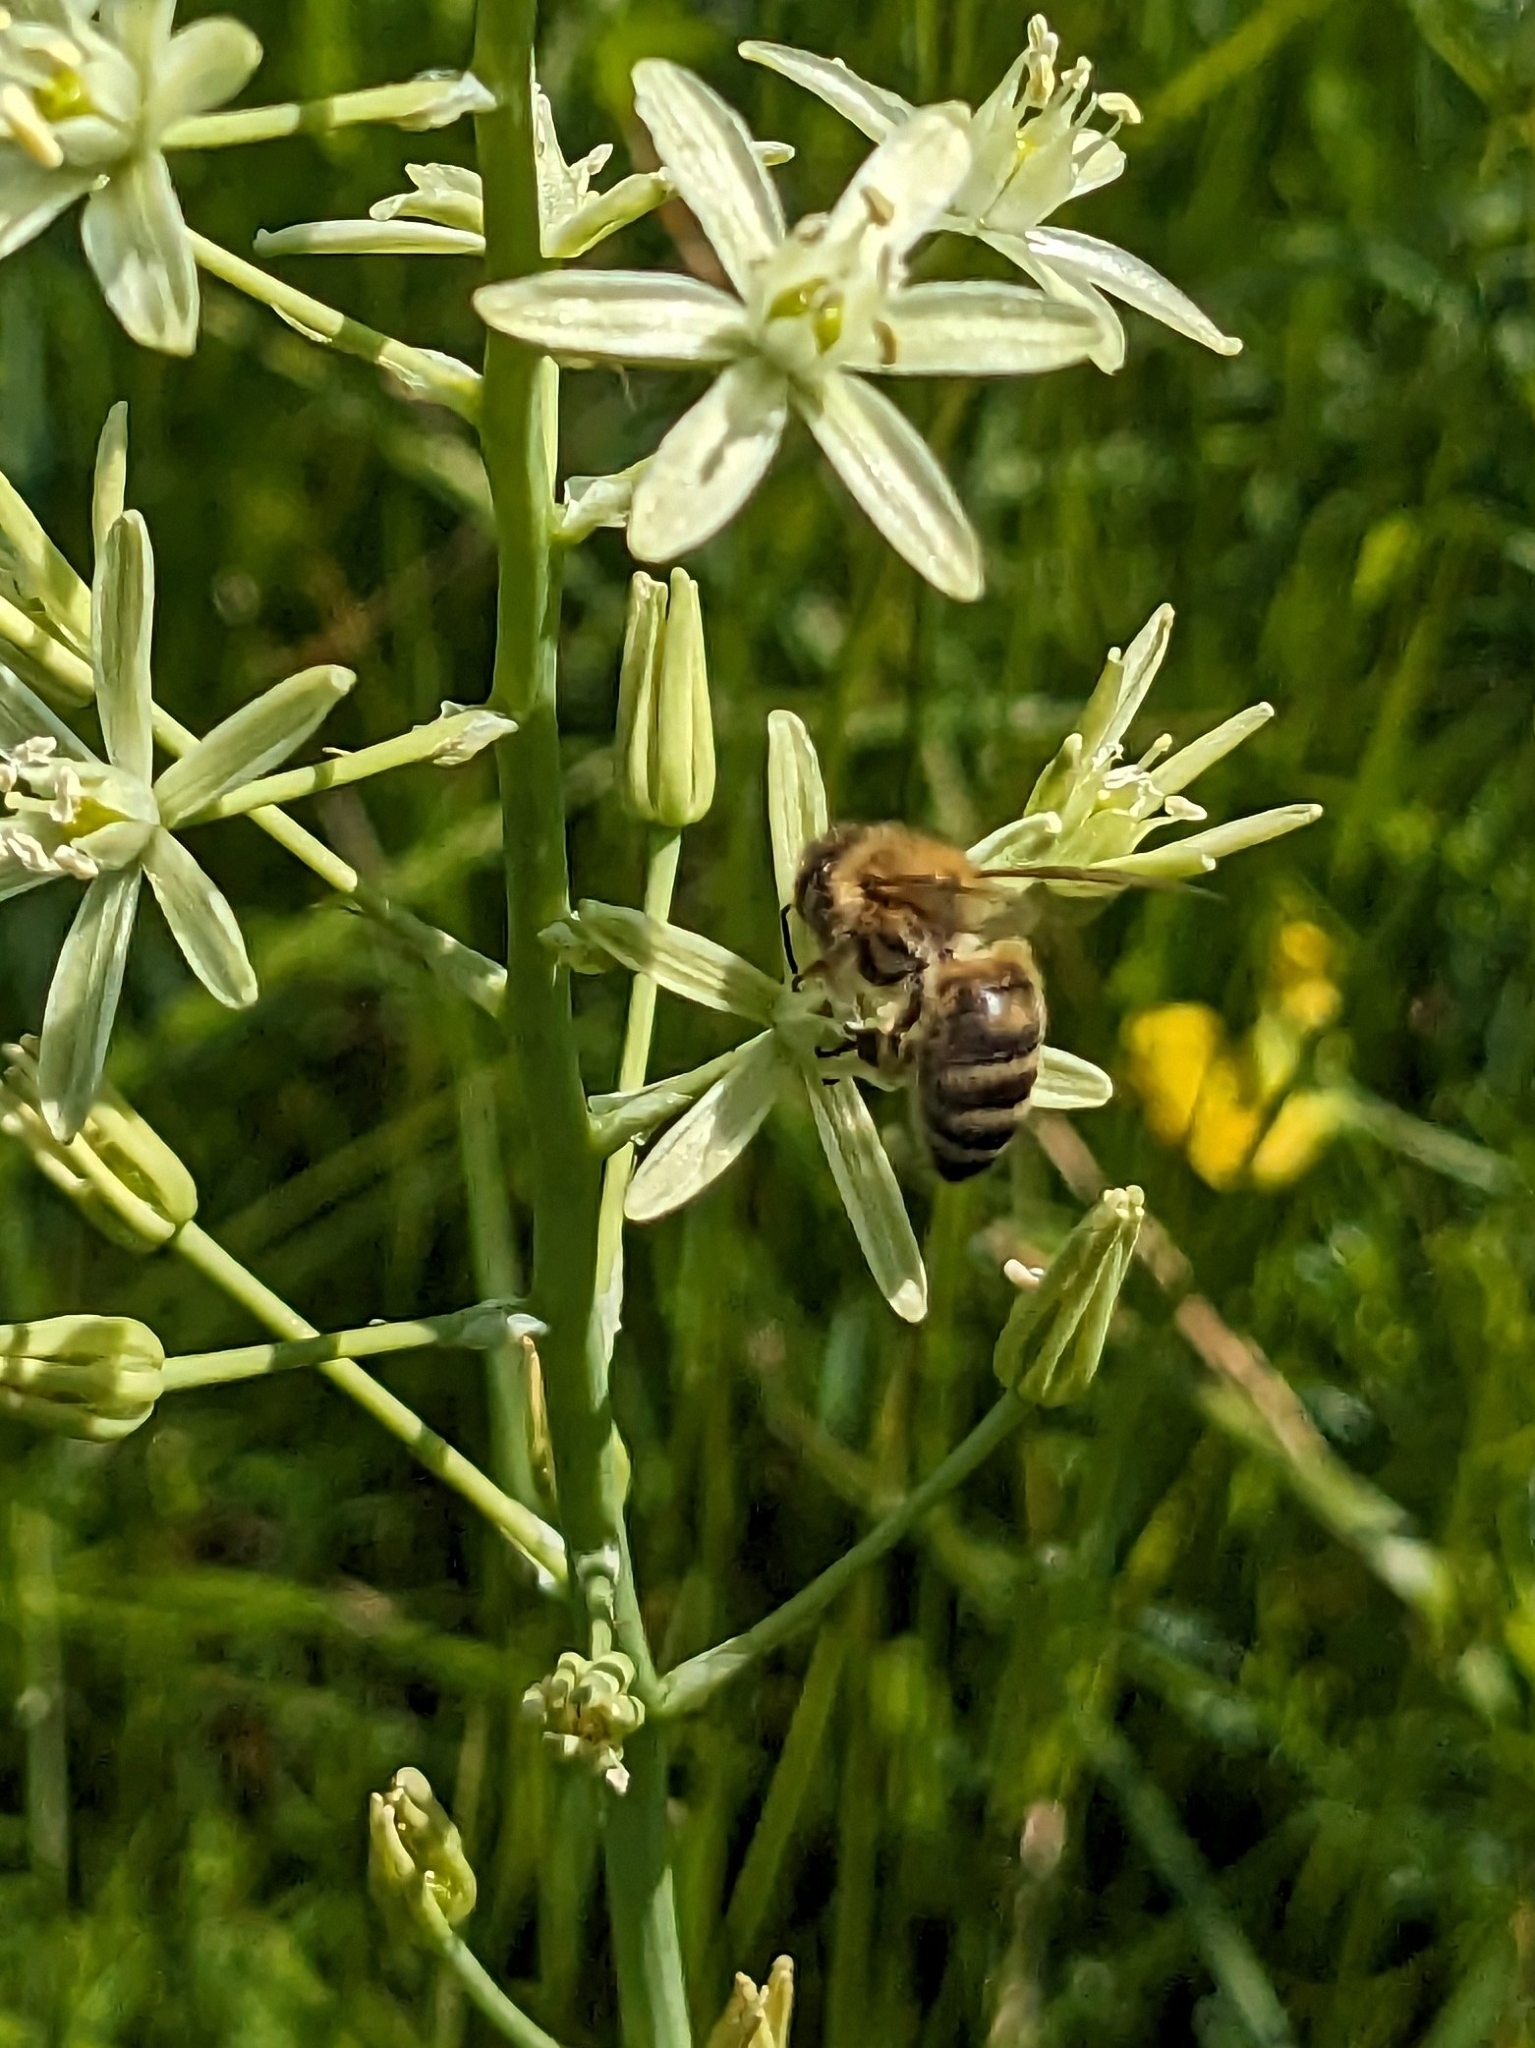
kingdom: Animalia
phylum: Arthropoda
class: Insecta
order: Hymenoptera
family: Apidae
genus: Apis
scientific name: Apis mellifera
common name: Honey bee
